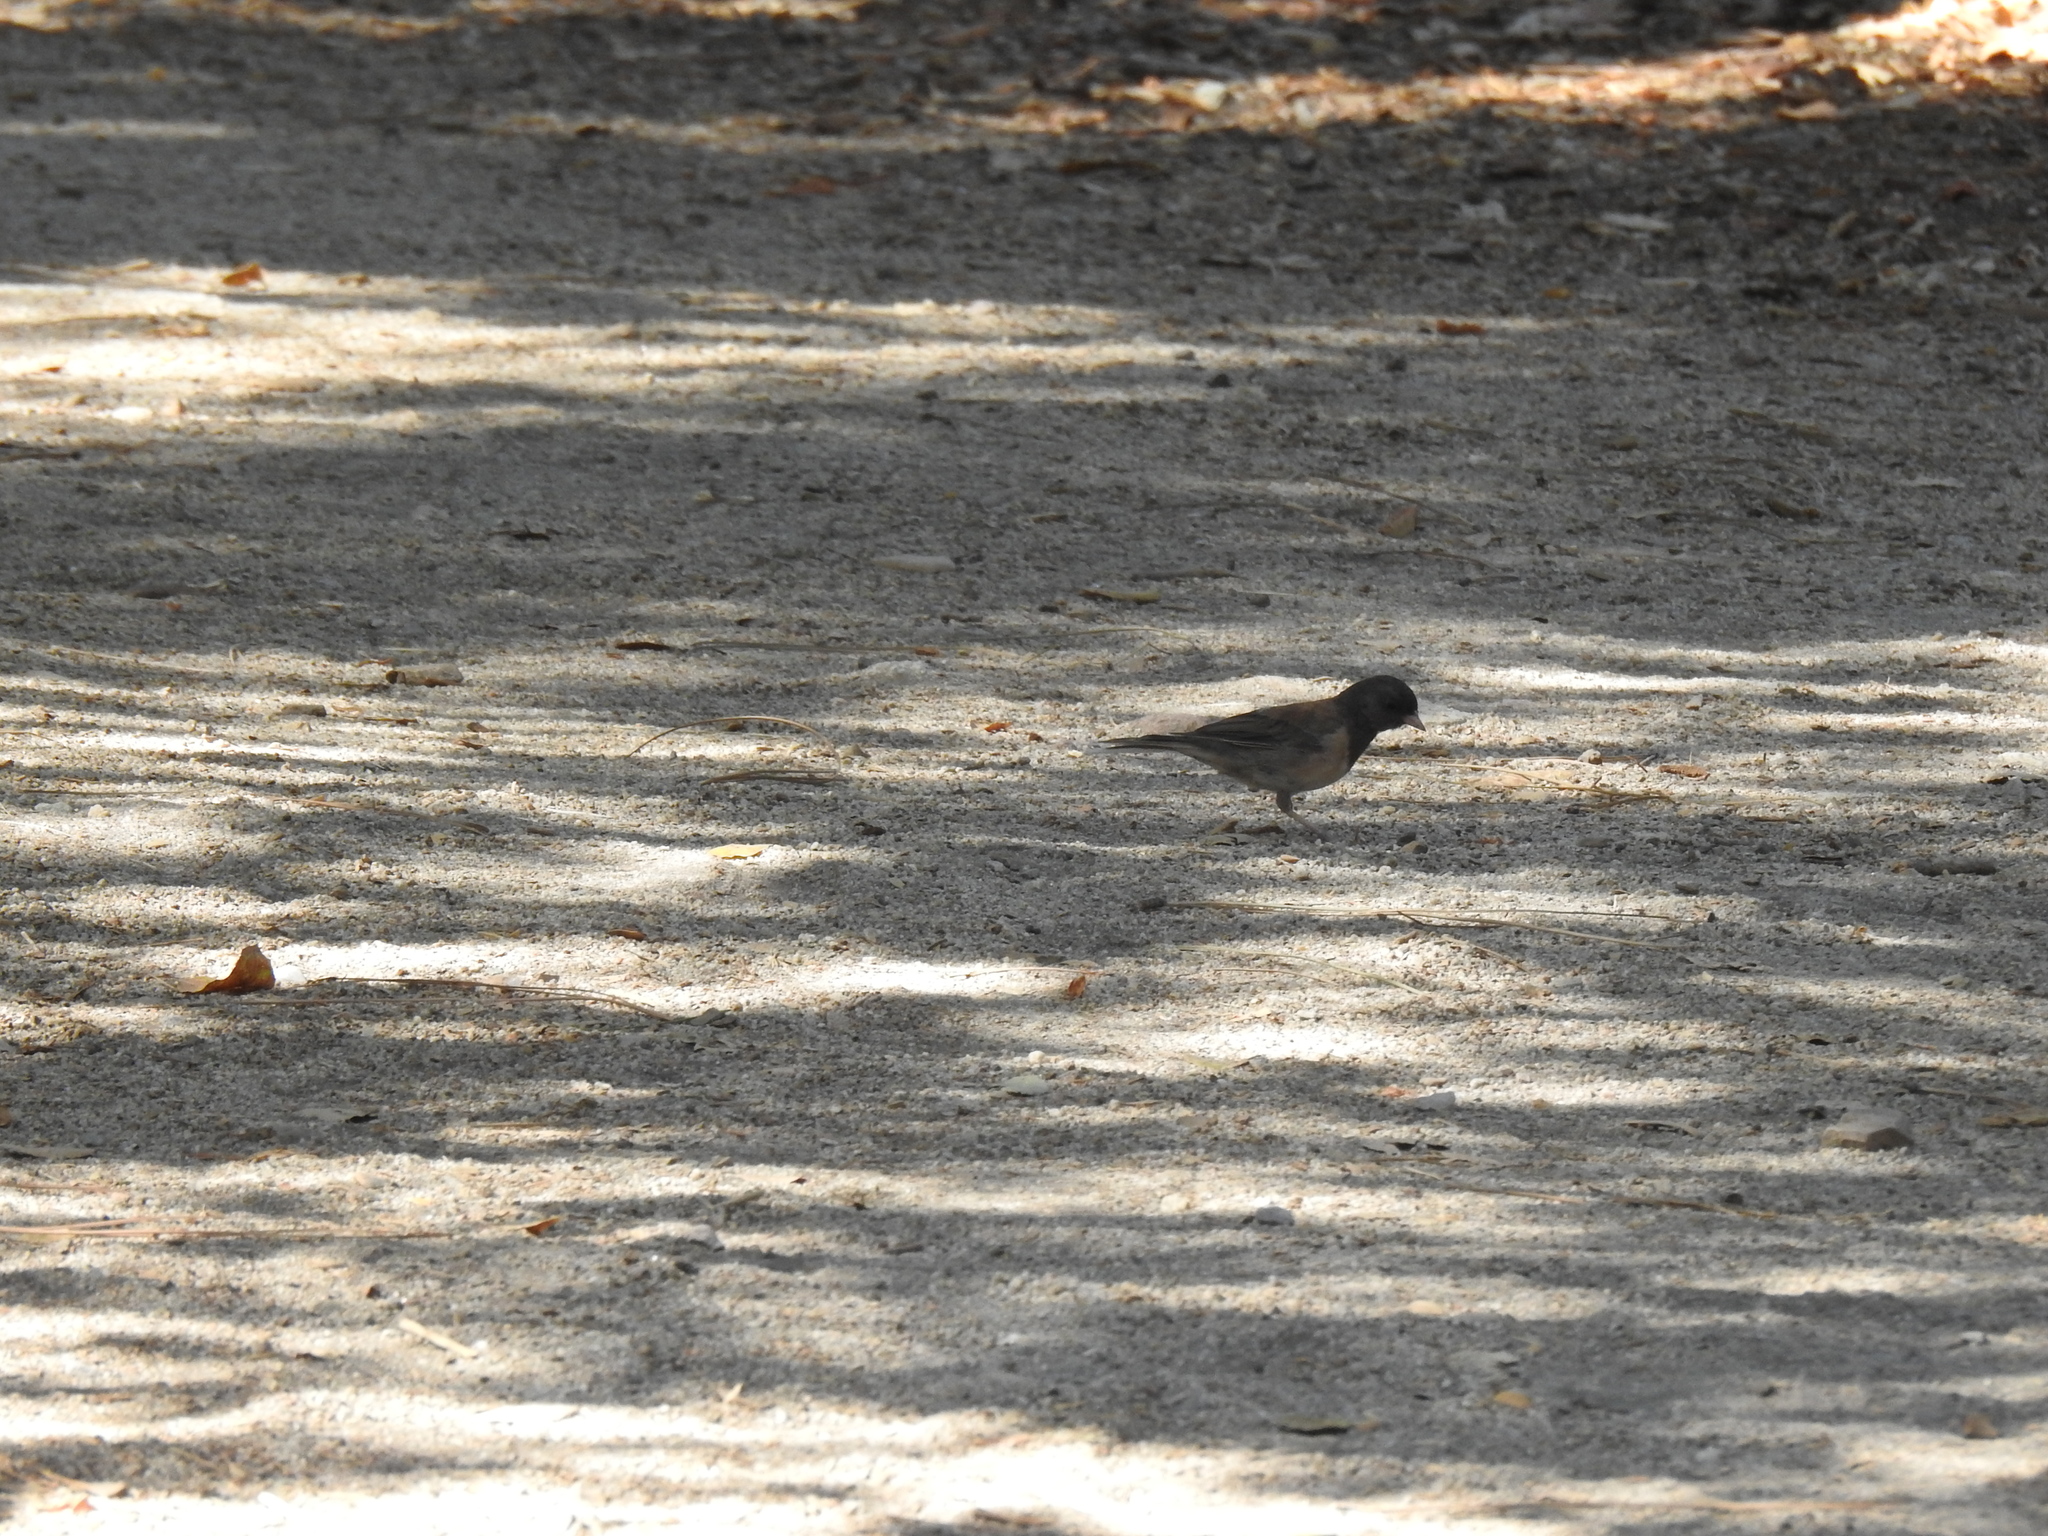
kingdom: Animalia
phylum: Chordata
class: Aves
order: Passeriformes
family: Passerellidae
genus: Junco
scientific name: Junco hyemalis
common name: Dark-eyed junco
